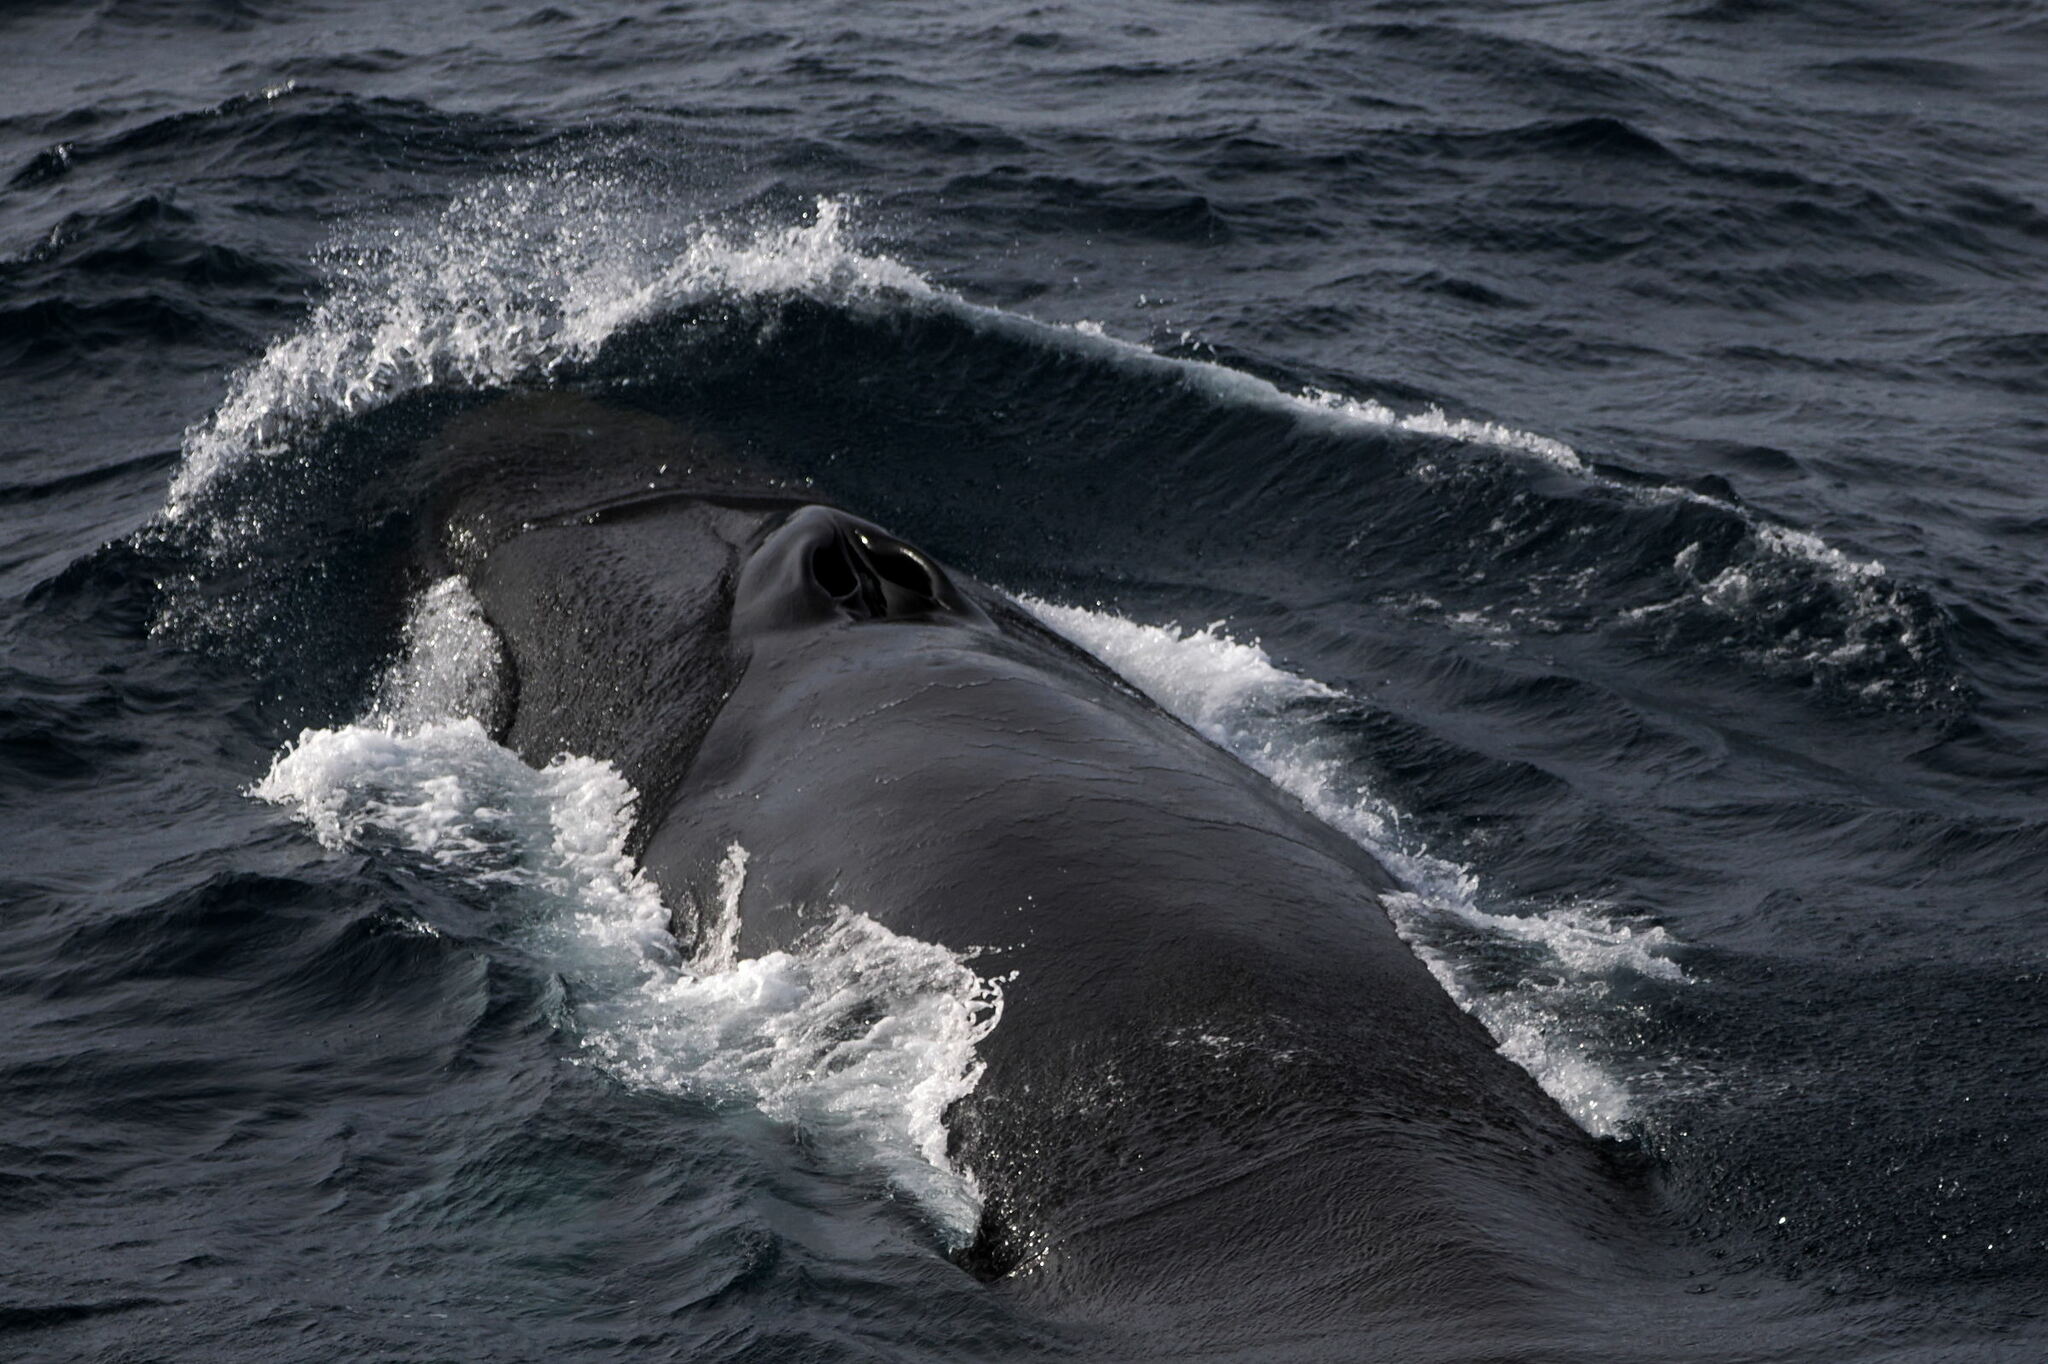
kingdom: Animalia
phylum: Chordata
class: Mammalia
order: Cetacea
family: Balaenopteridae
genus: Balaenoptera
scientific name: Balaenoptera physalus
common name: Fin whale
